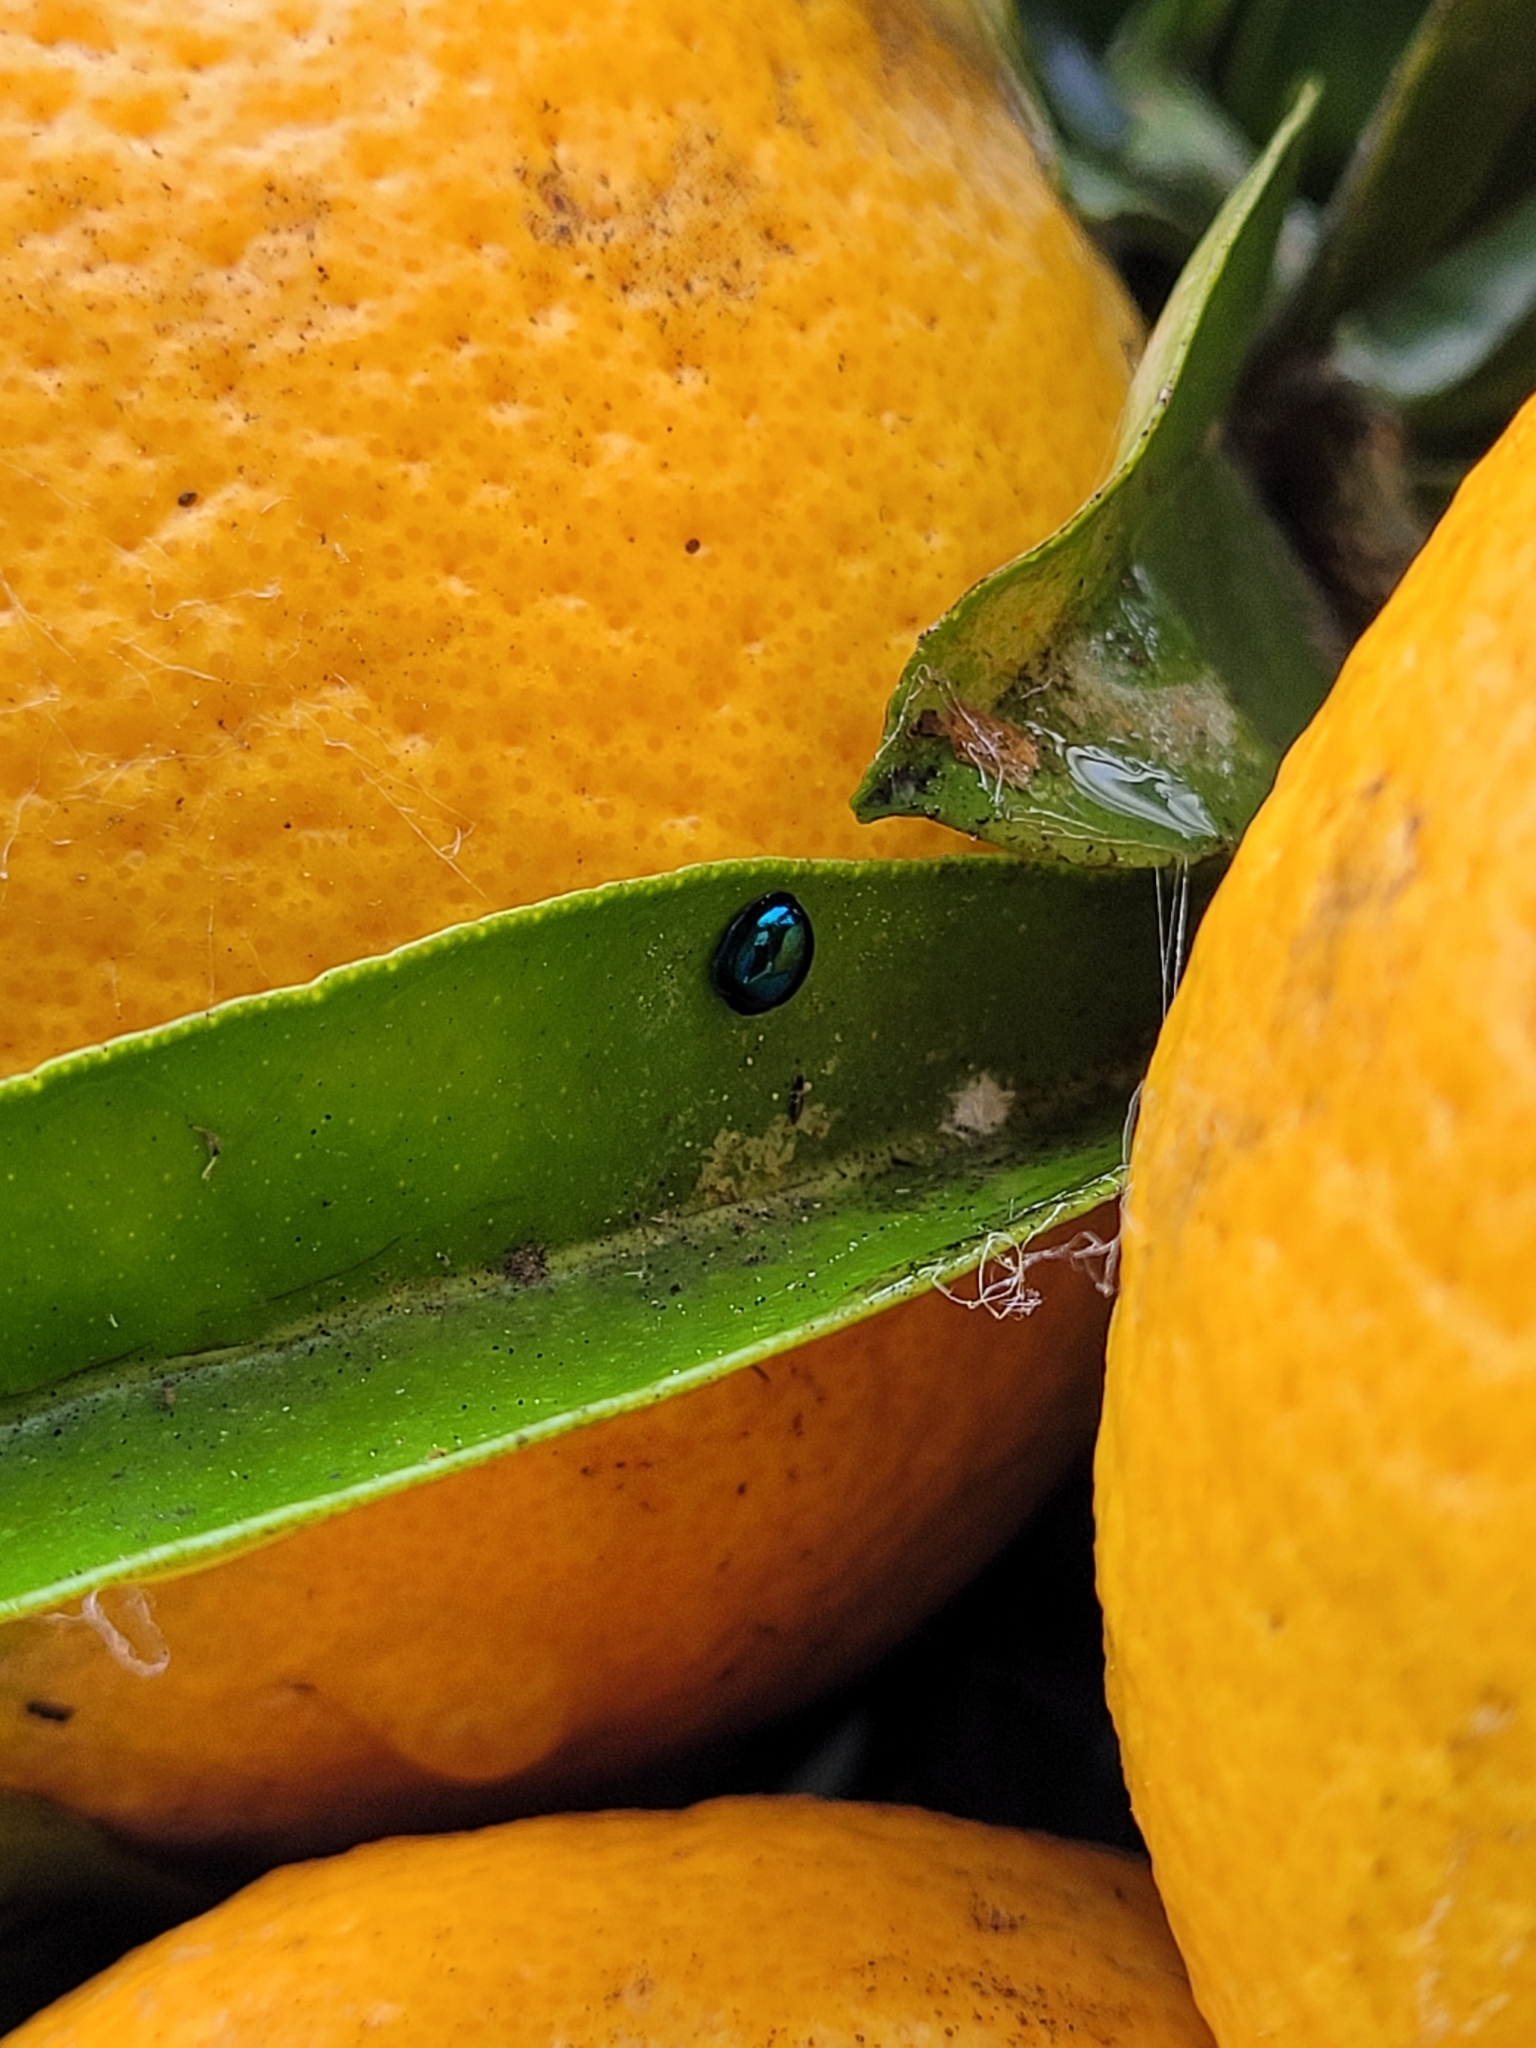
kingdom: Animalia
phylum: Arthropoda
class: Insecta
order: Coleoptera
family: Coccinellidae
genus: Halmus
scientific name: Halmus chalybeus
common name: Steel blue ladybird beetle
